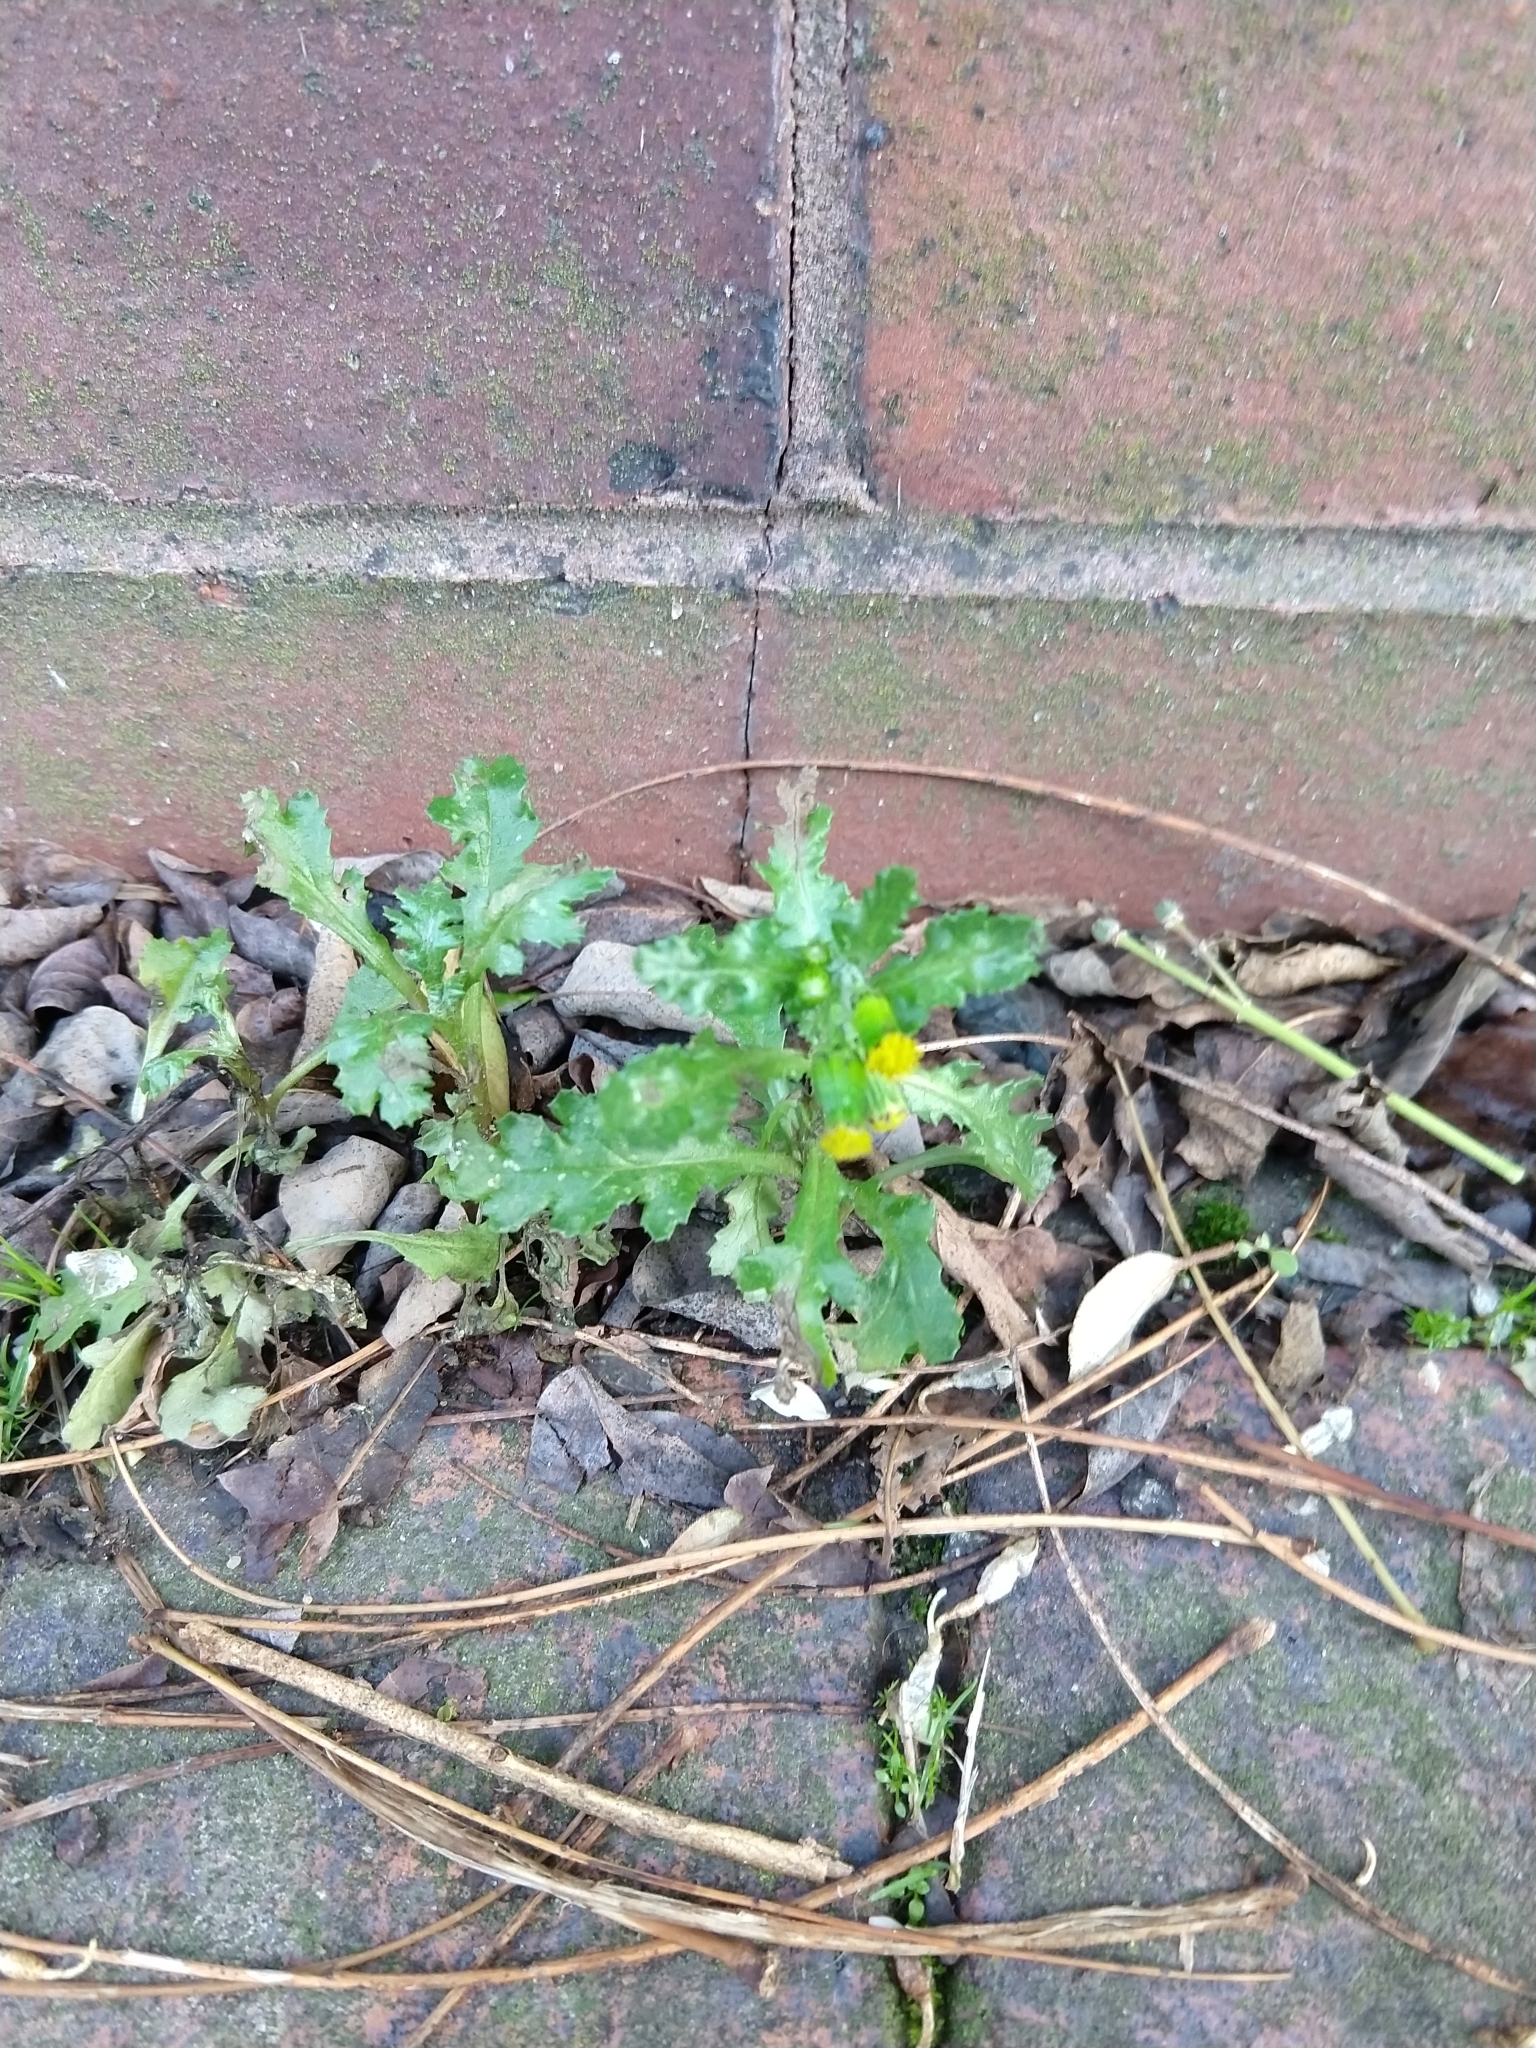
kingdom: Plantae
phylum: Tracheophyta
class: Magnoliopsida
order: Asterales
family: Asteraceae
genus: Senecio
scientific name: Senecio vulgaris
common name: Old-man-in-the-spring
